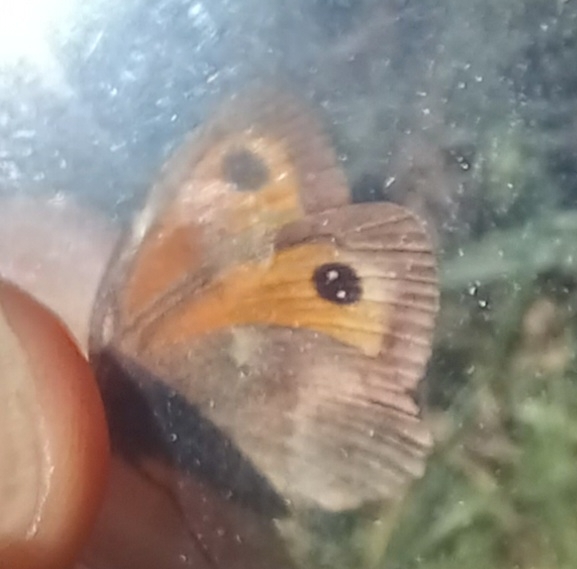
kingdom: Animalia
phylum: Arthropoda
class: Insecta
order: Lepidoptera
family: Nymphalidae
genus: Pyronia
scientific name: Pyronia tithonus
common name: Gatekeeper
